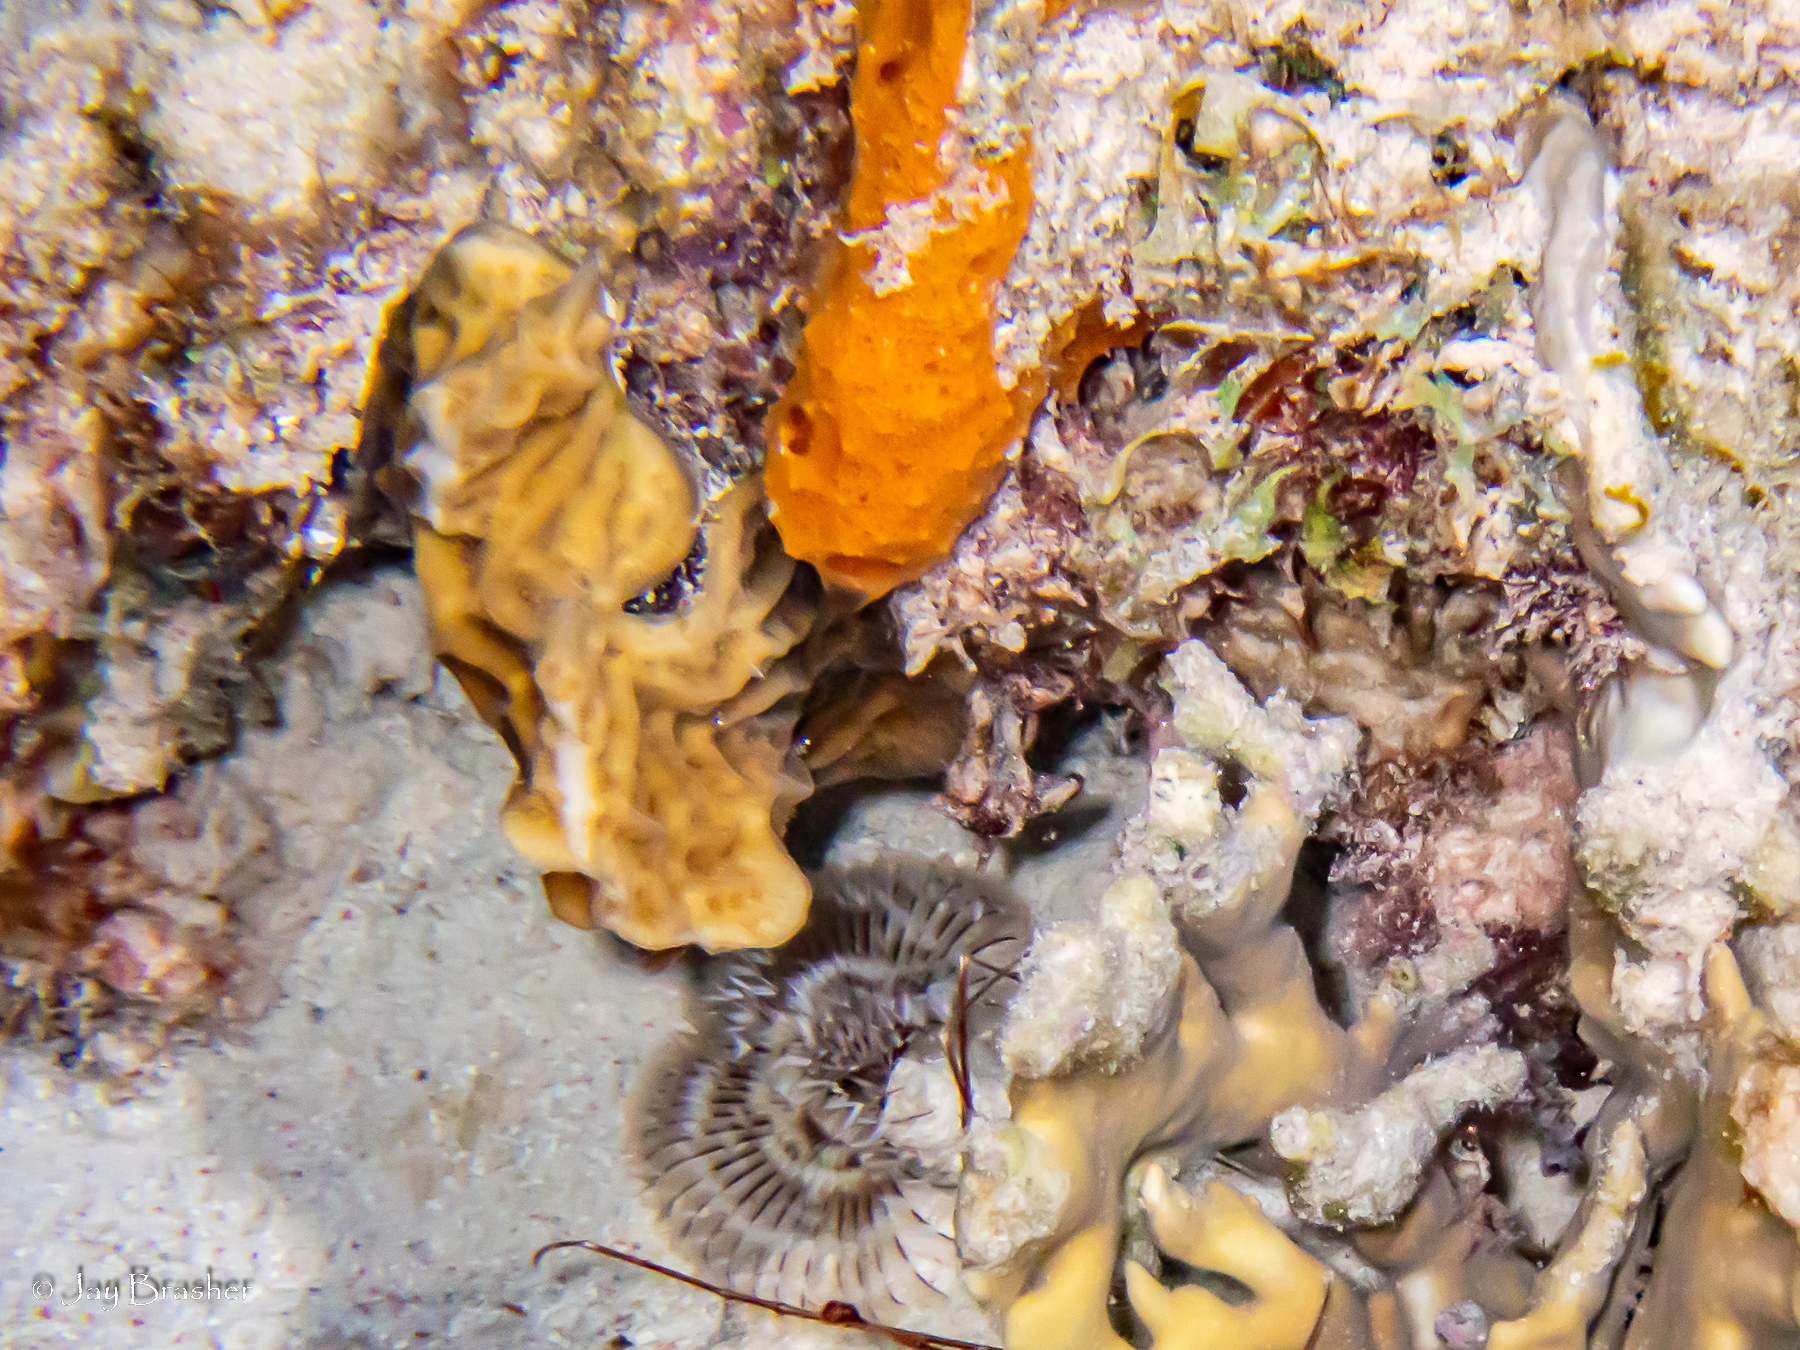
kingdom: Animalia
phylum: Porifera
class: Demospongiae
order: Scopalinida
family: Scopalinidae
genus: Scopalina
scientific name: Scopalina ruetzleri
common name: Orange lumpy encrusting sponge
